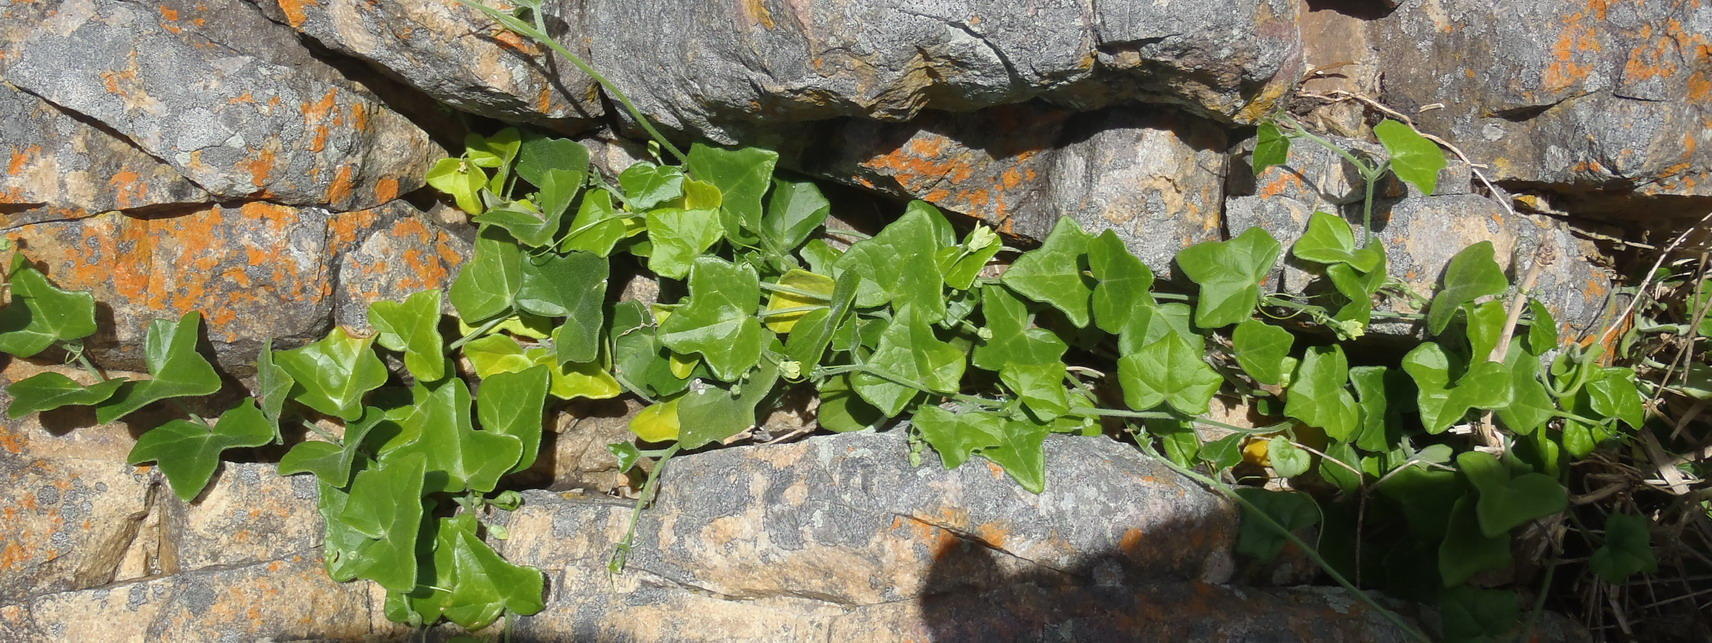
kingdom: Plantae
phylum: Tracheophyta
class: Magnoliopsida
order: Cucurbitales
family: Cucurbitaceae
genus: Kedrostis
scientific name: Kedrostis nana
